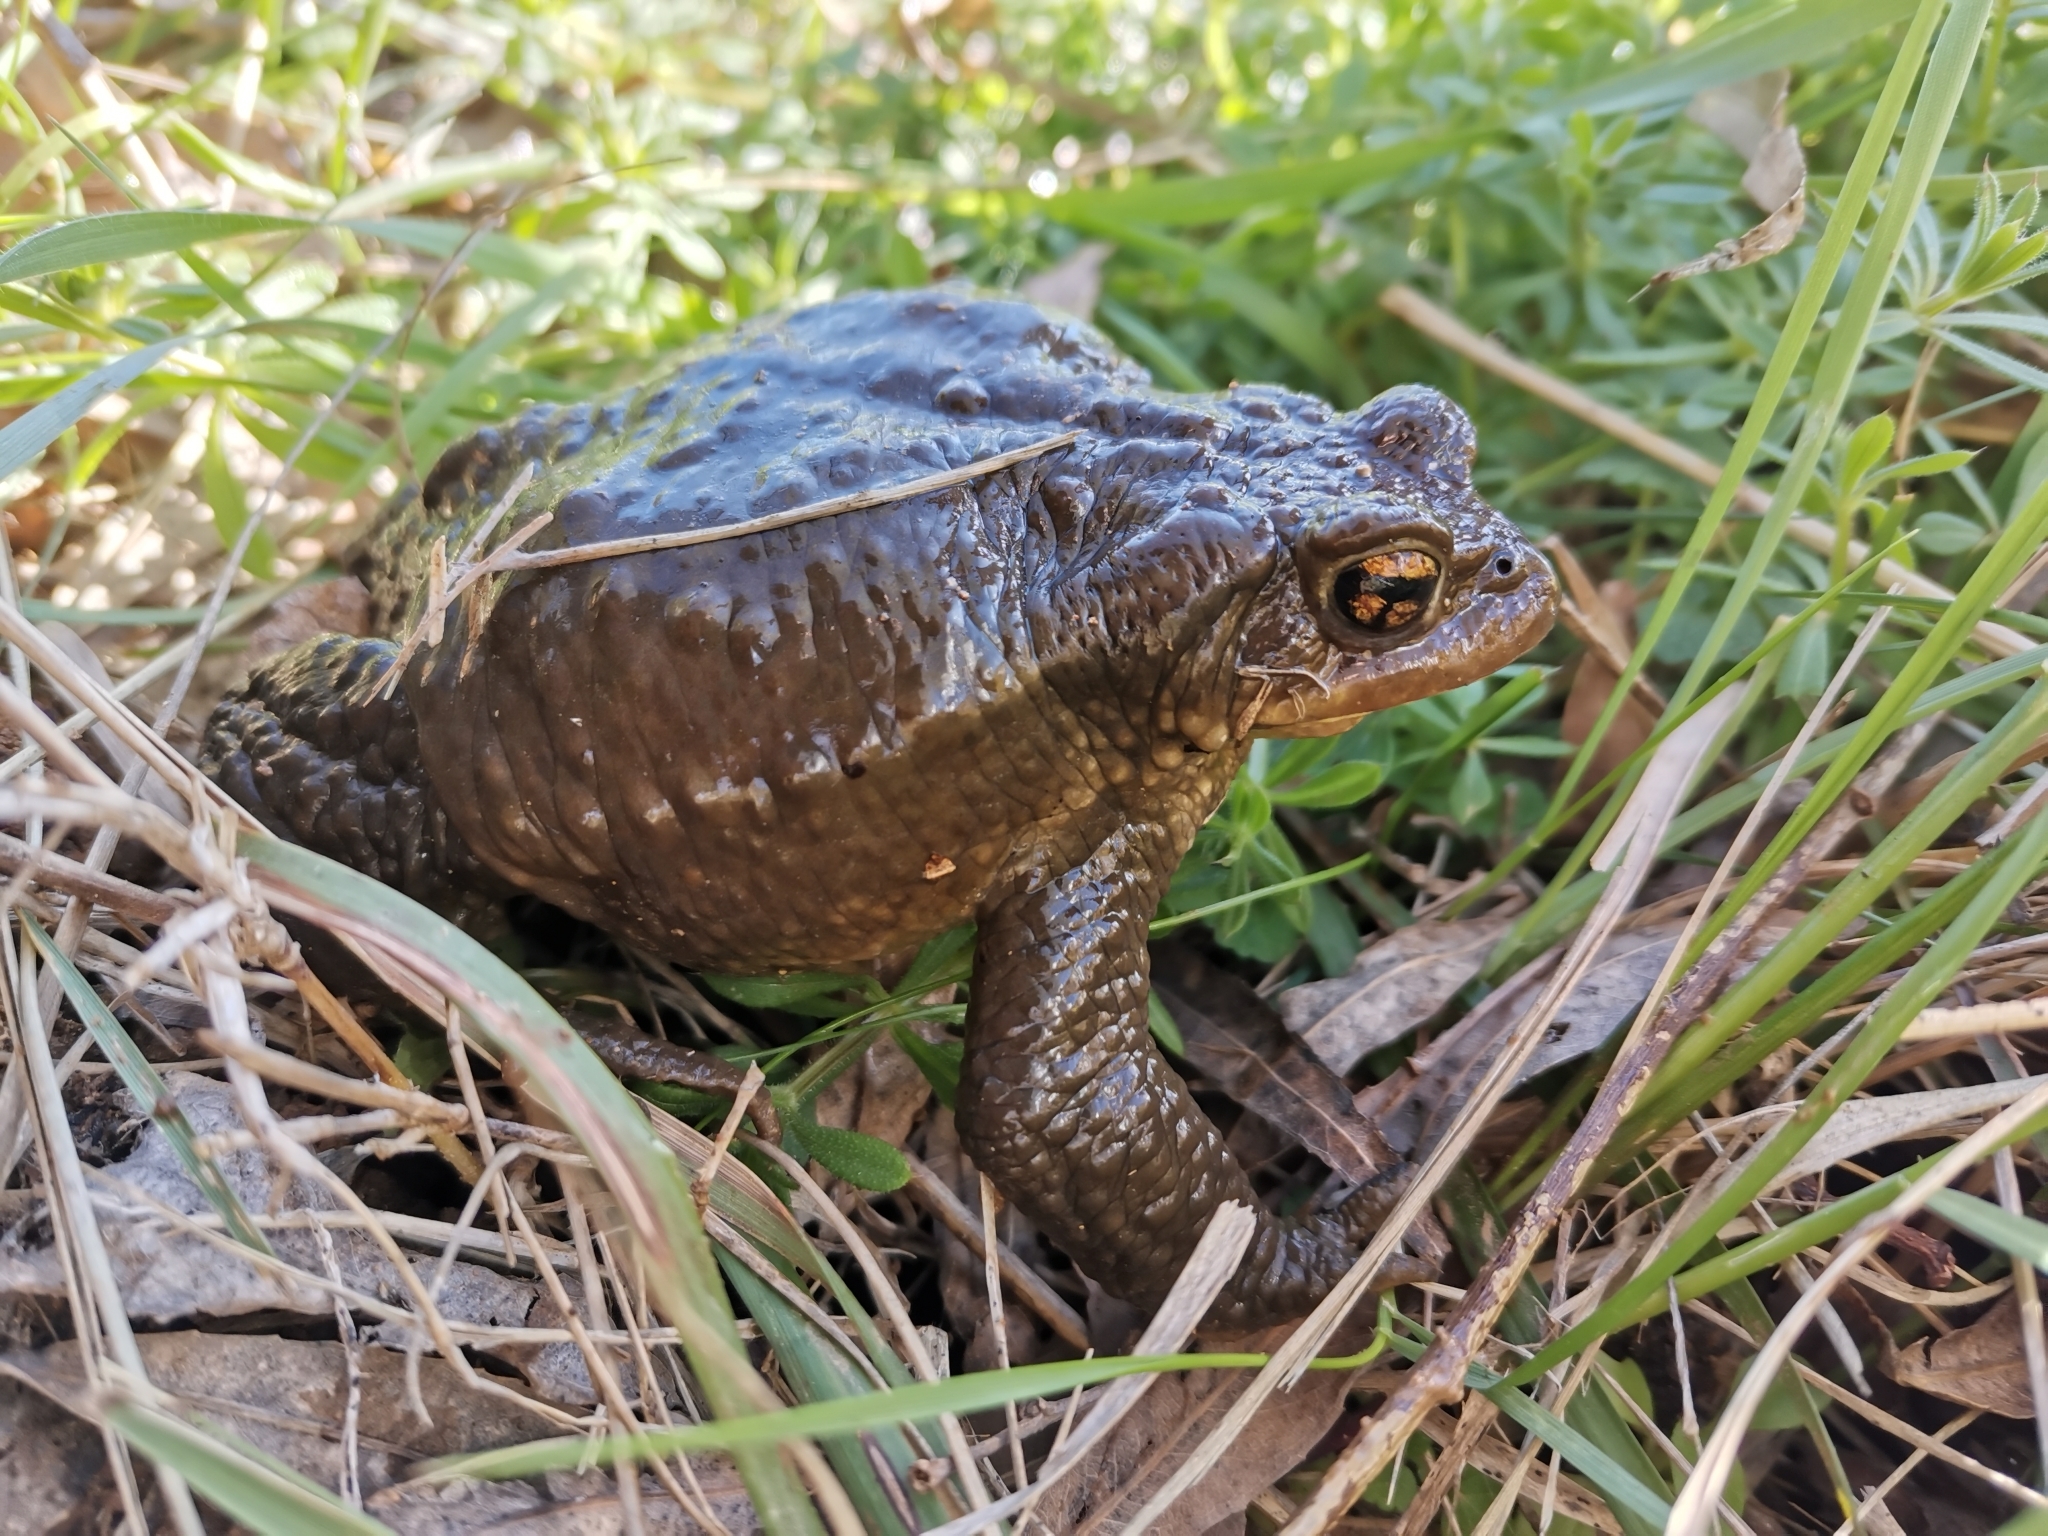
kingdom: Animalia
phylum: Chordata
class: Amphibia
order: Anura
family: Bufonidae
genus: Bufo
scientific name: Bufo spinosus
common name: Western common toad
